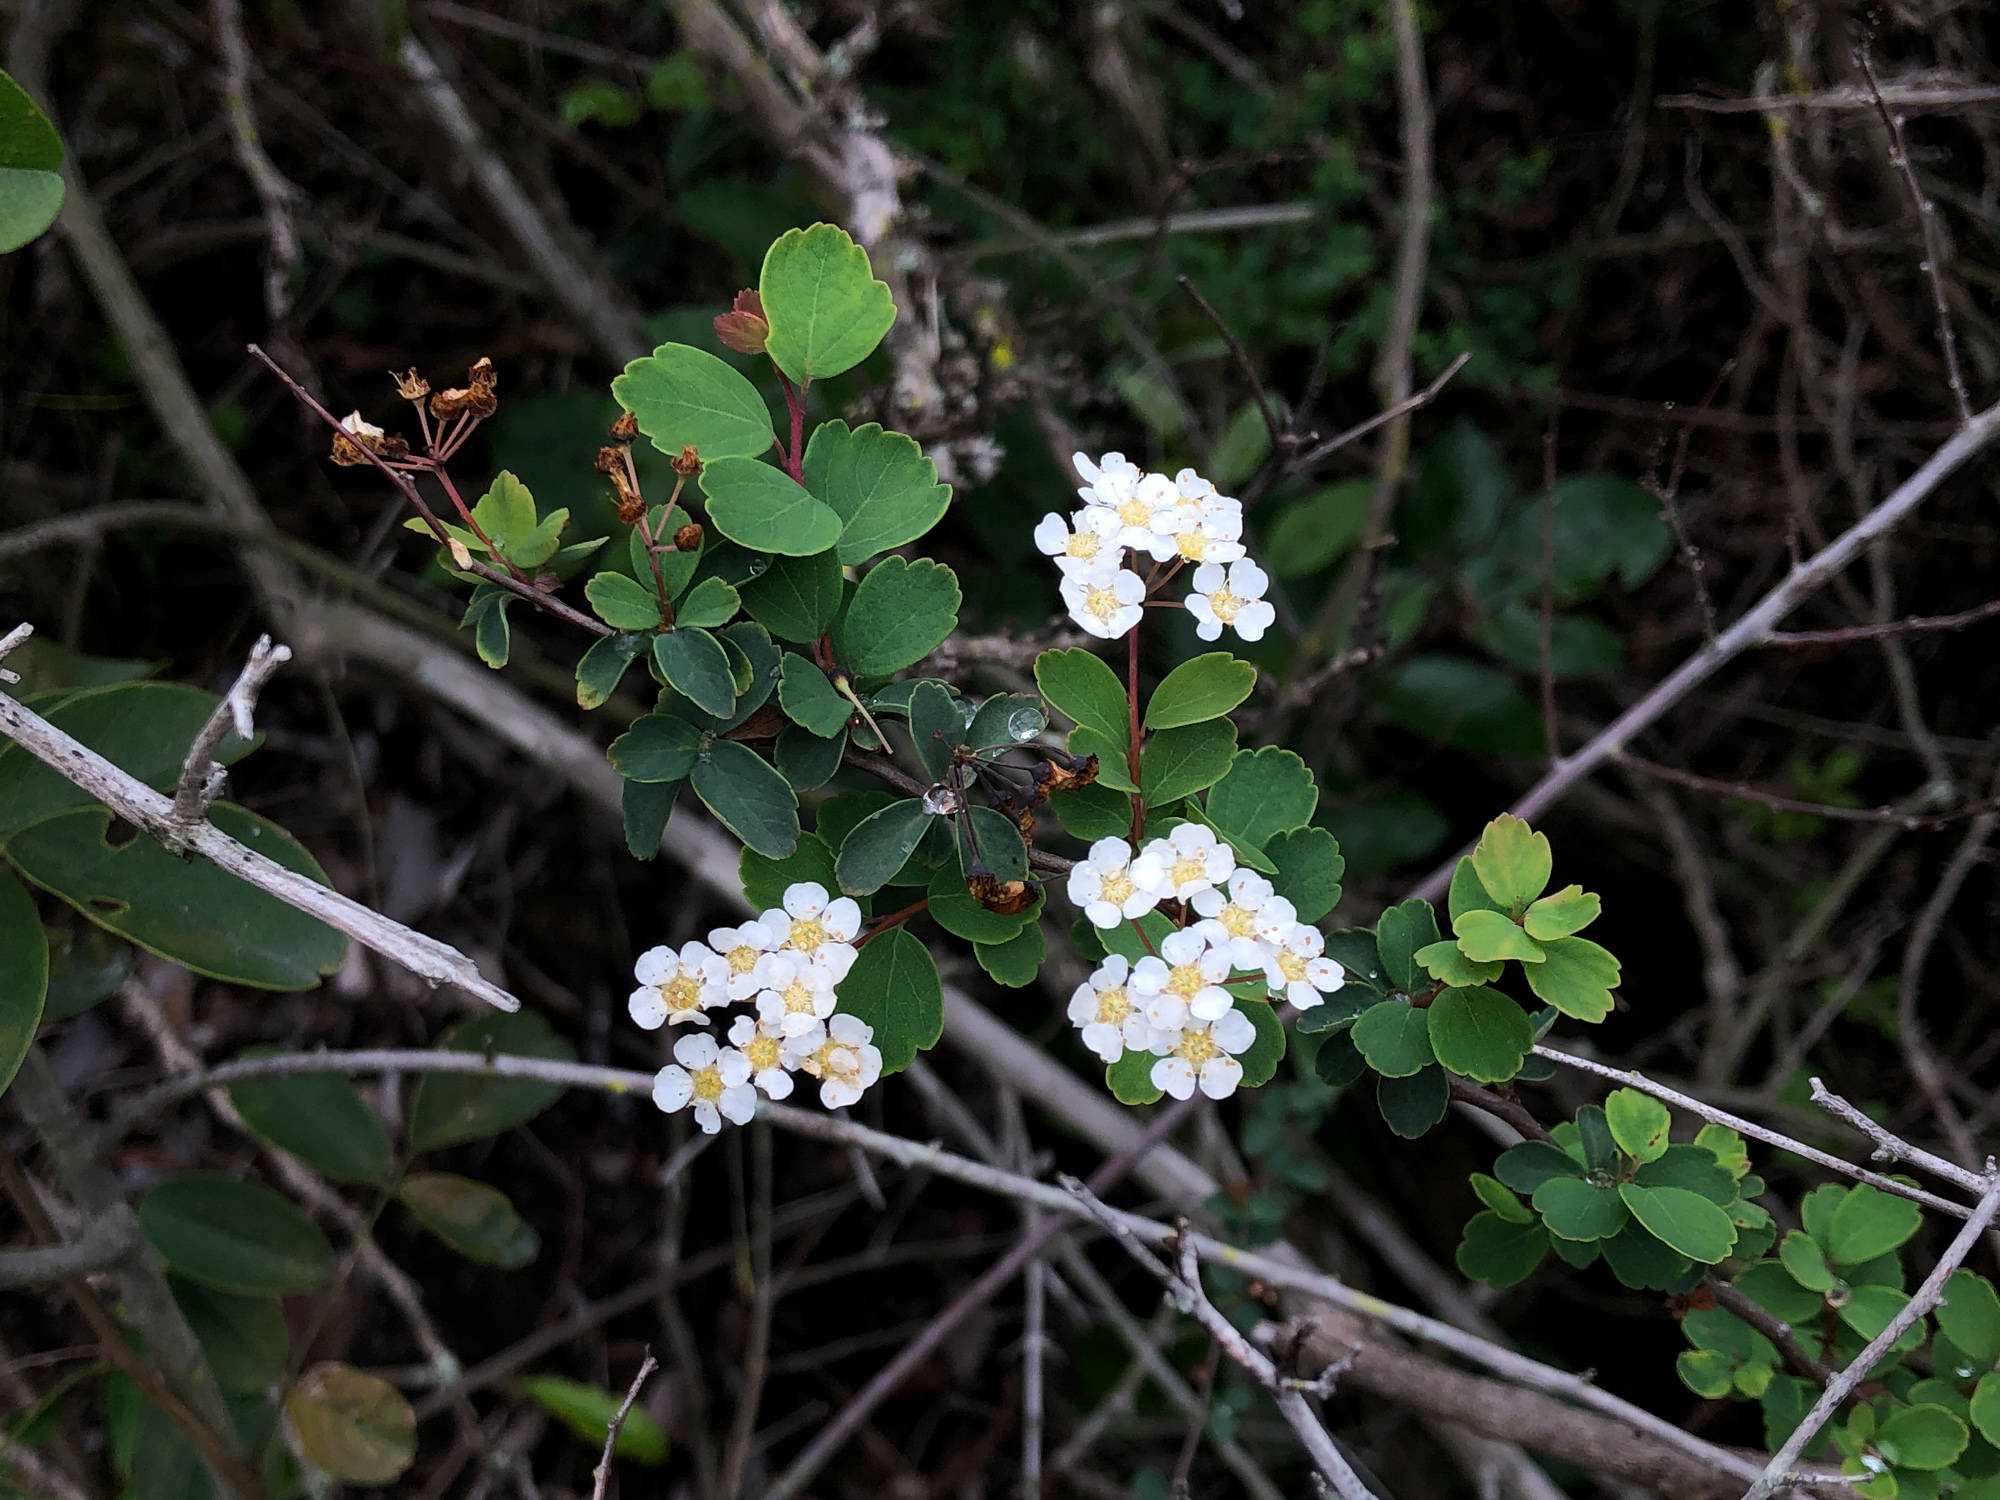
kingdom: Plantae
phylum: Tracheophyta
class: Magnoliopsida
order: Rosales
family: Rosaceae
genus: Spiraea
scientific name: Spiraea blumei
